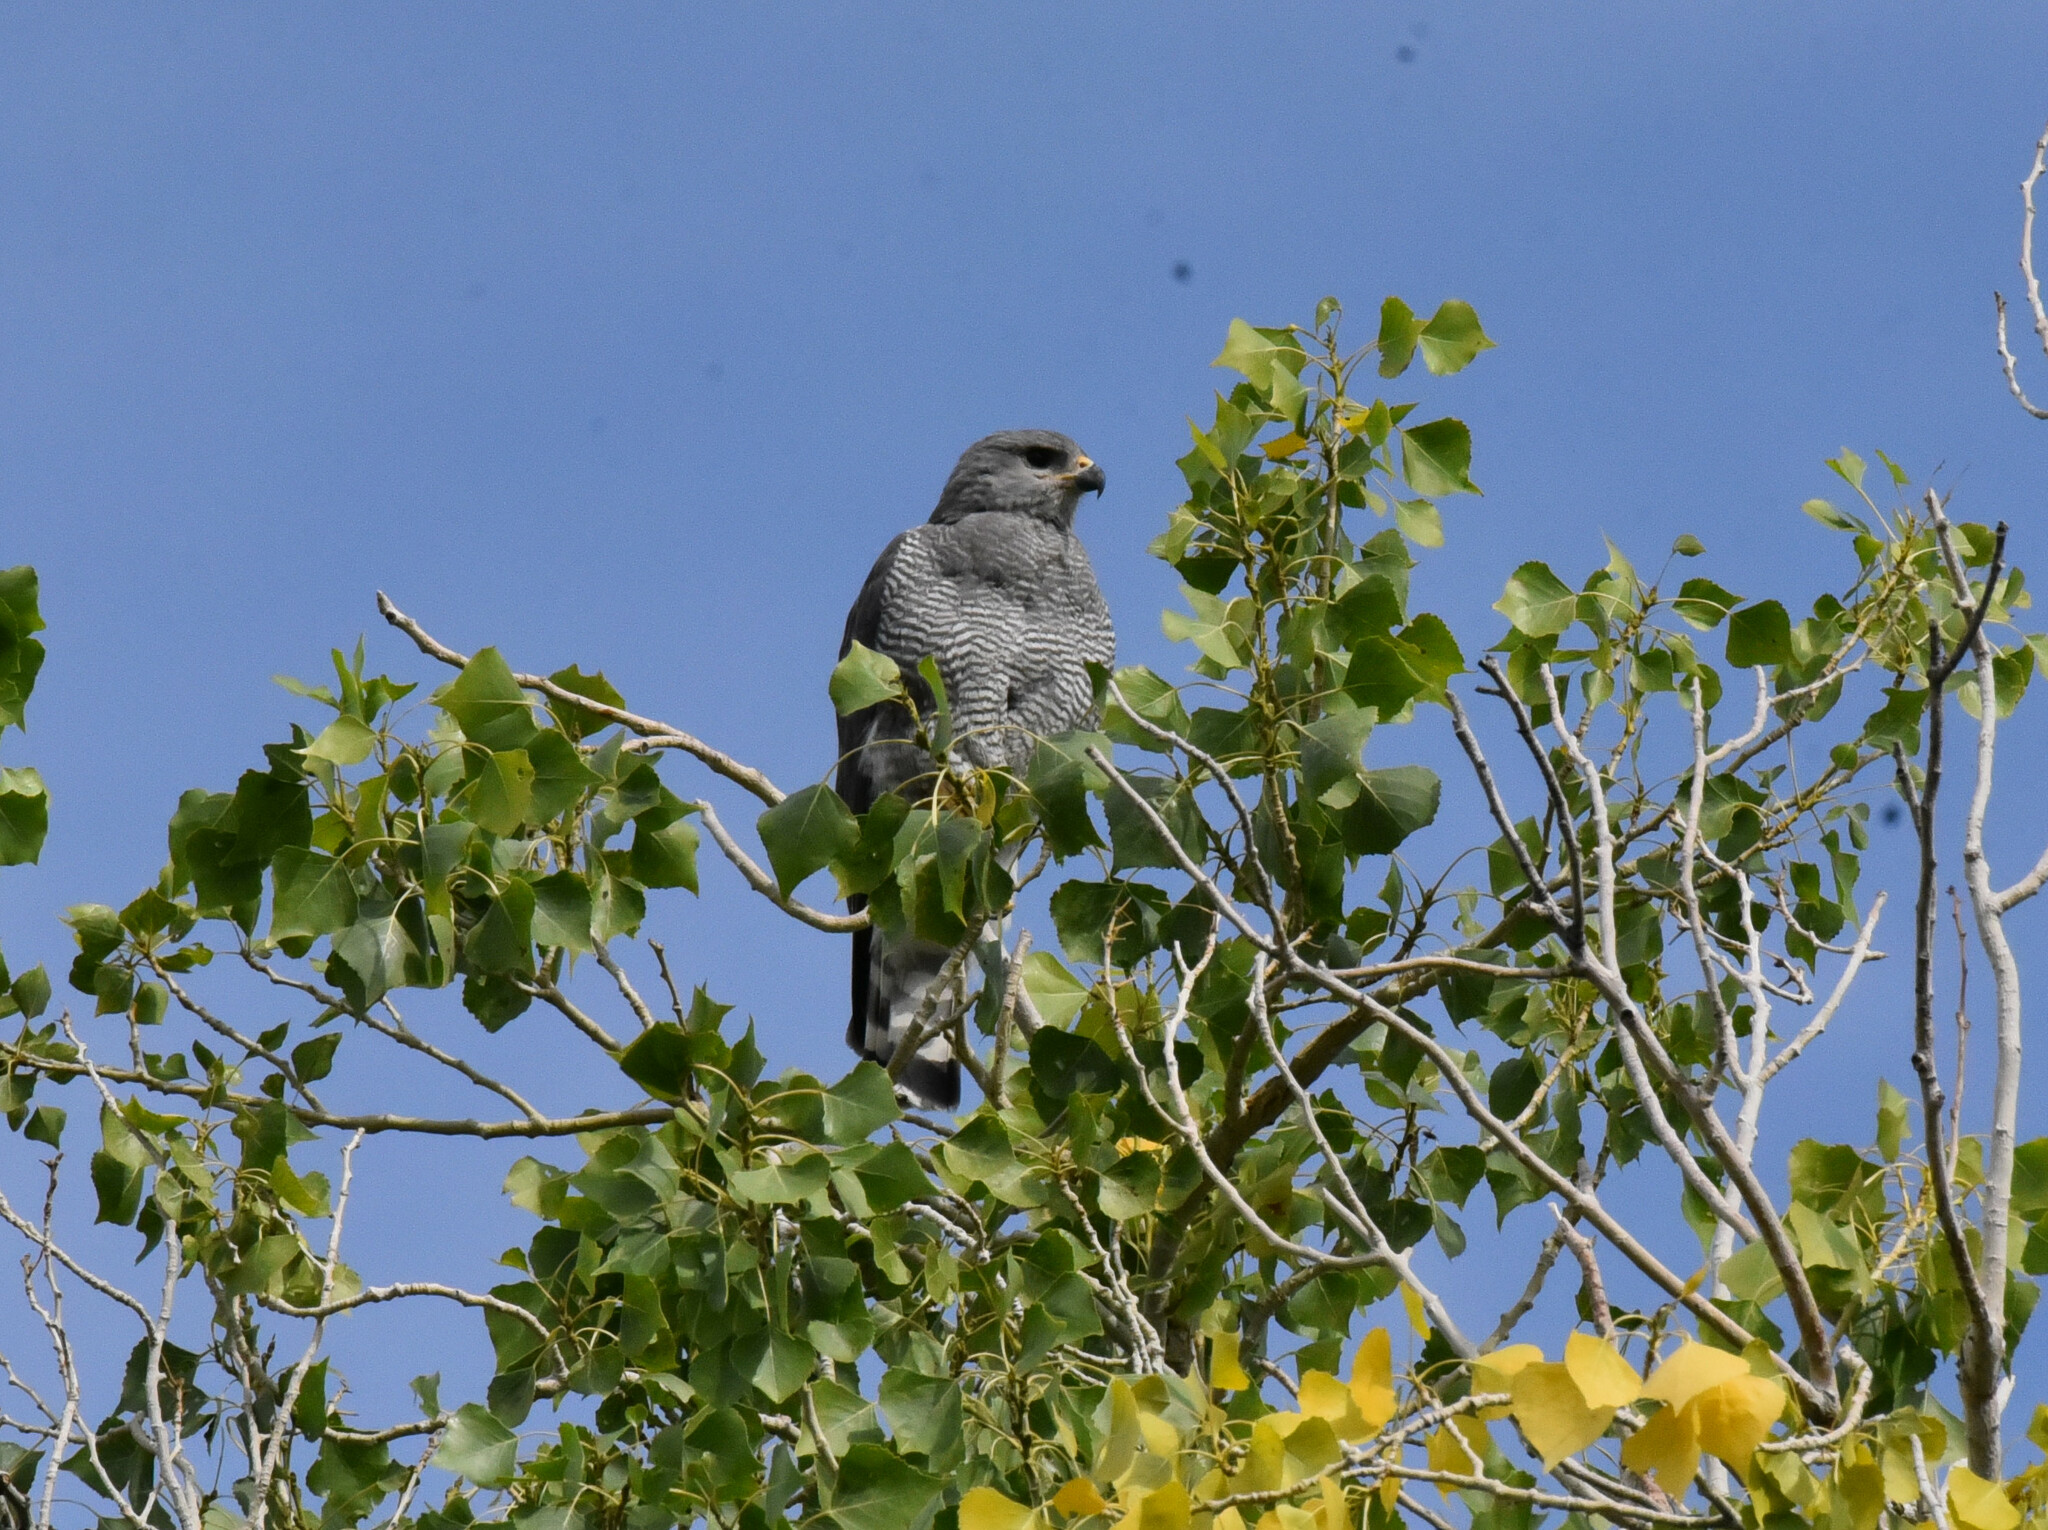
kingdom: Animalia
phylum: Chordata
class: Aves
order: Accipitriformes
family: Accipitridae
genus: Buteo
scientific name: Buteo nitidus
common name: Grey-lined hawk
